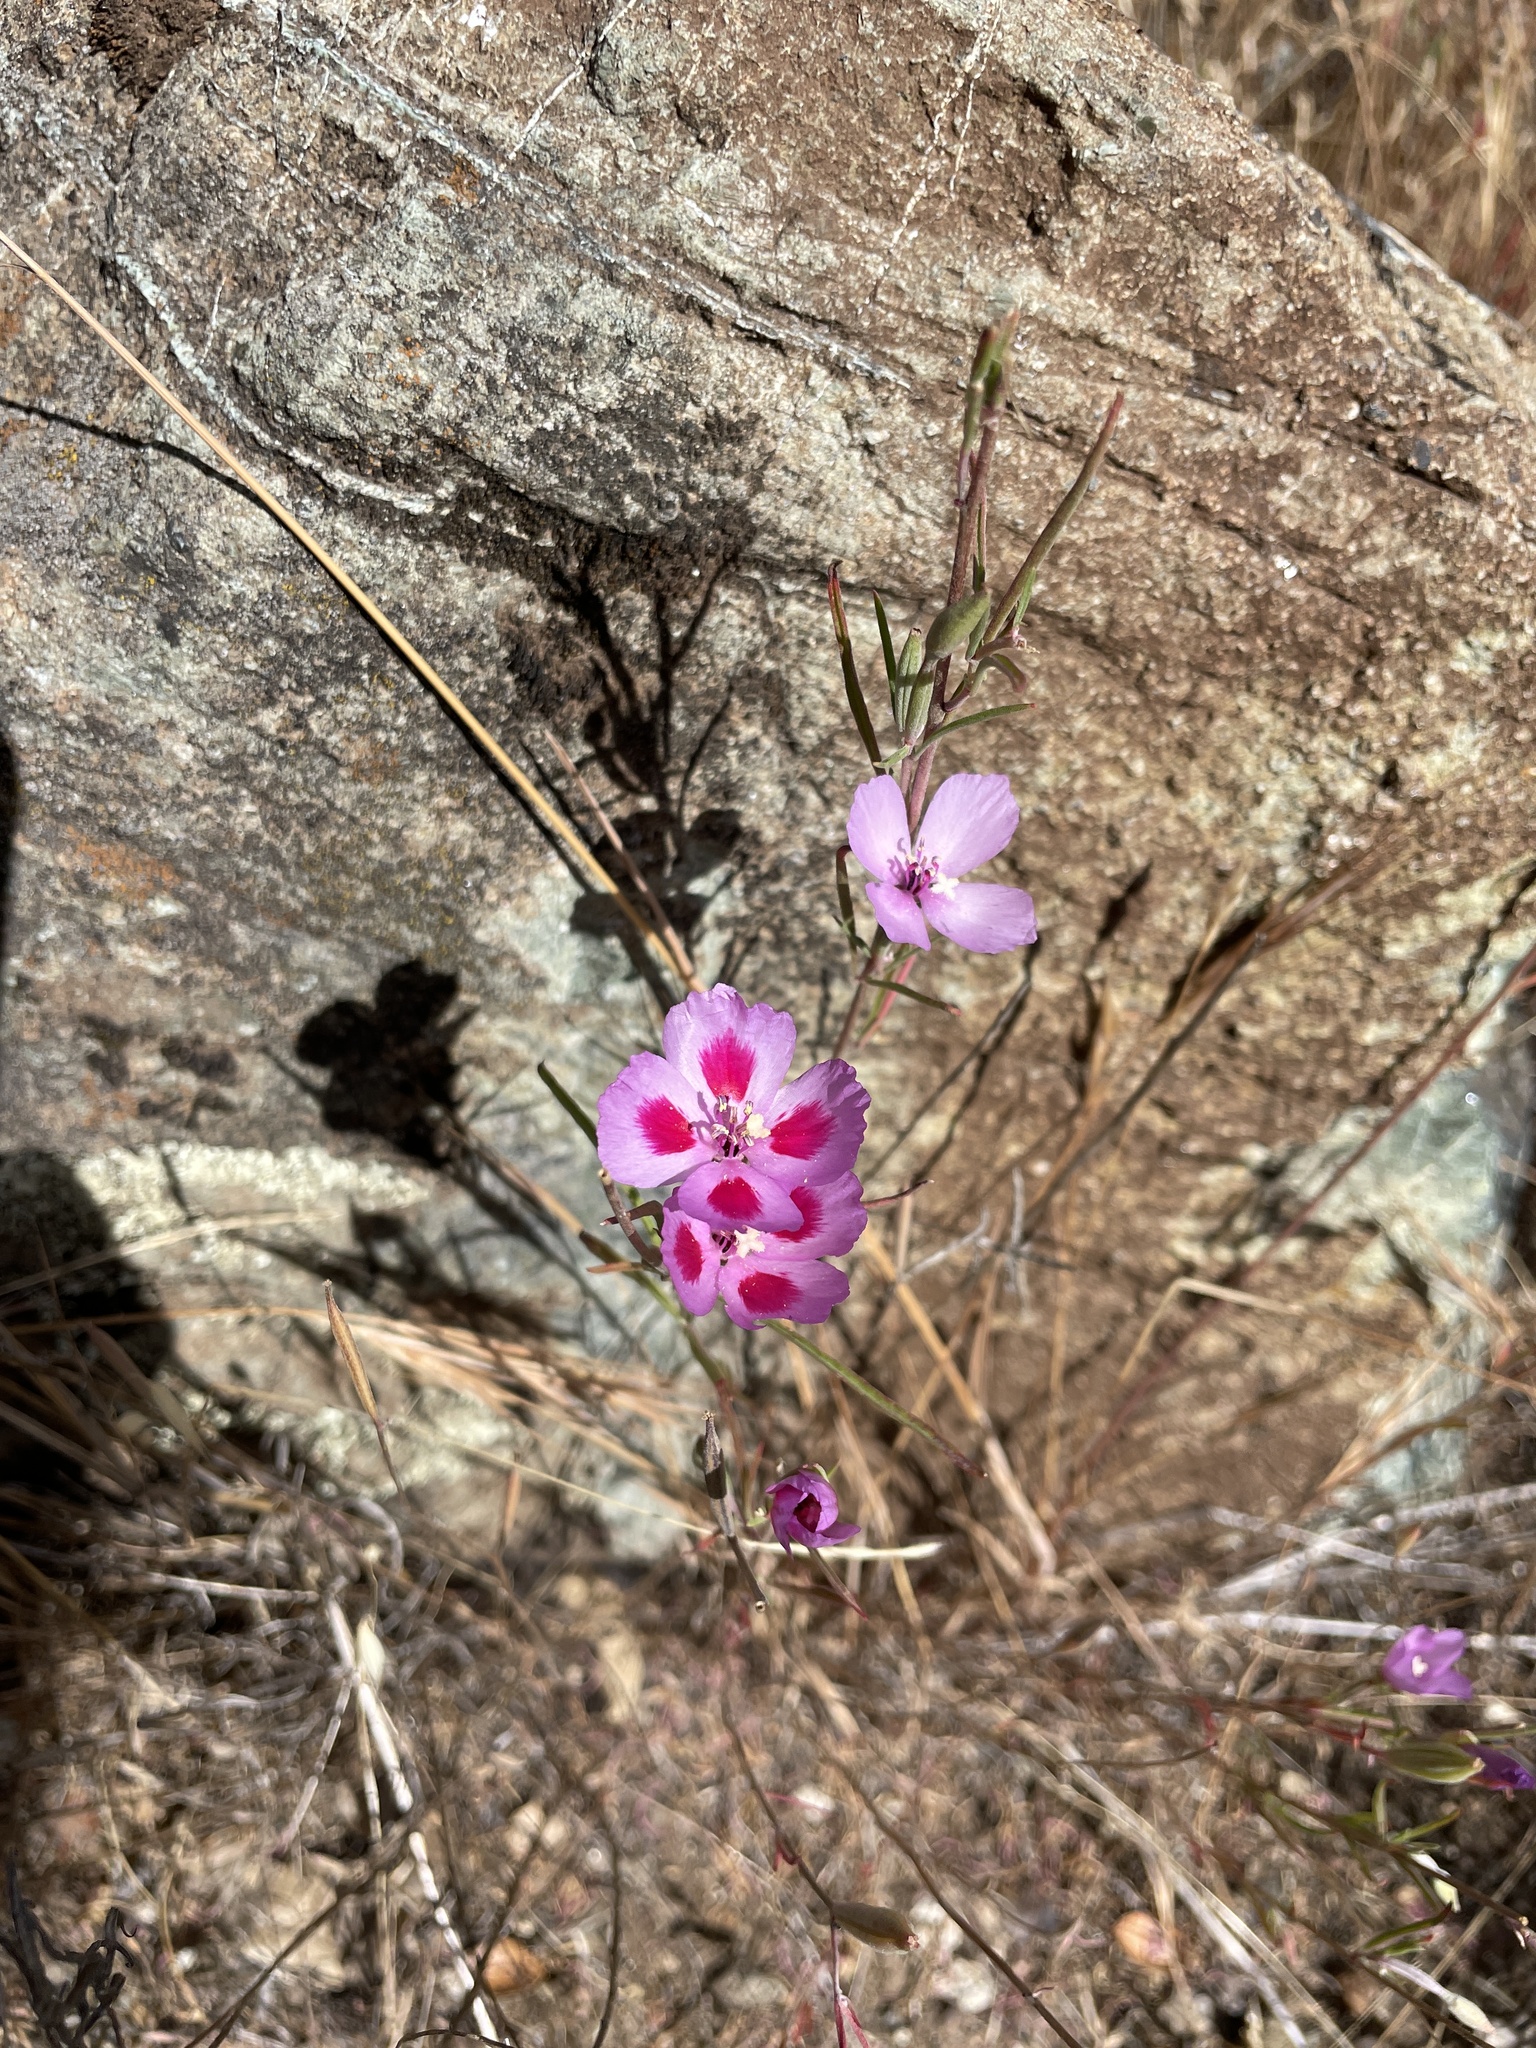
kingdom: Plantae
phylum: Tracheophyta
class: Magnoliopsida
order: Myrtales
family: Onagraceae
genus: Clarkia
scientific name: Clarkia amoena
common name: Godetia
